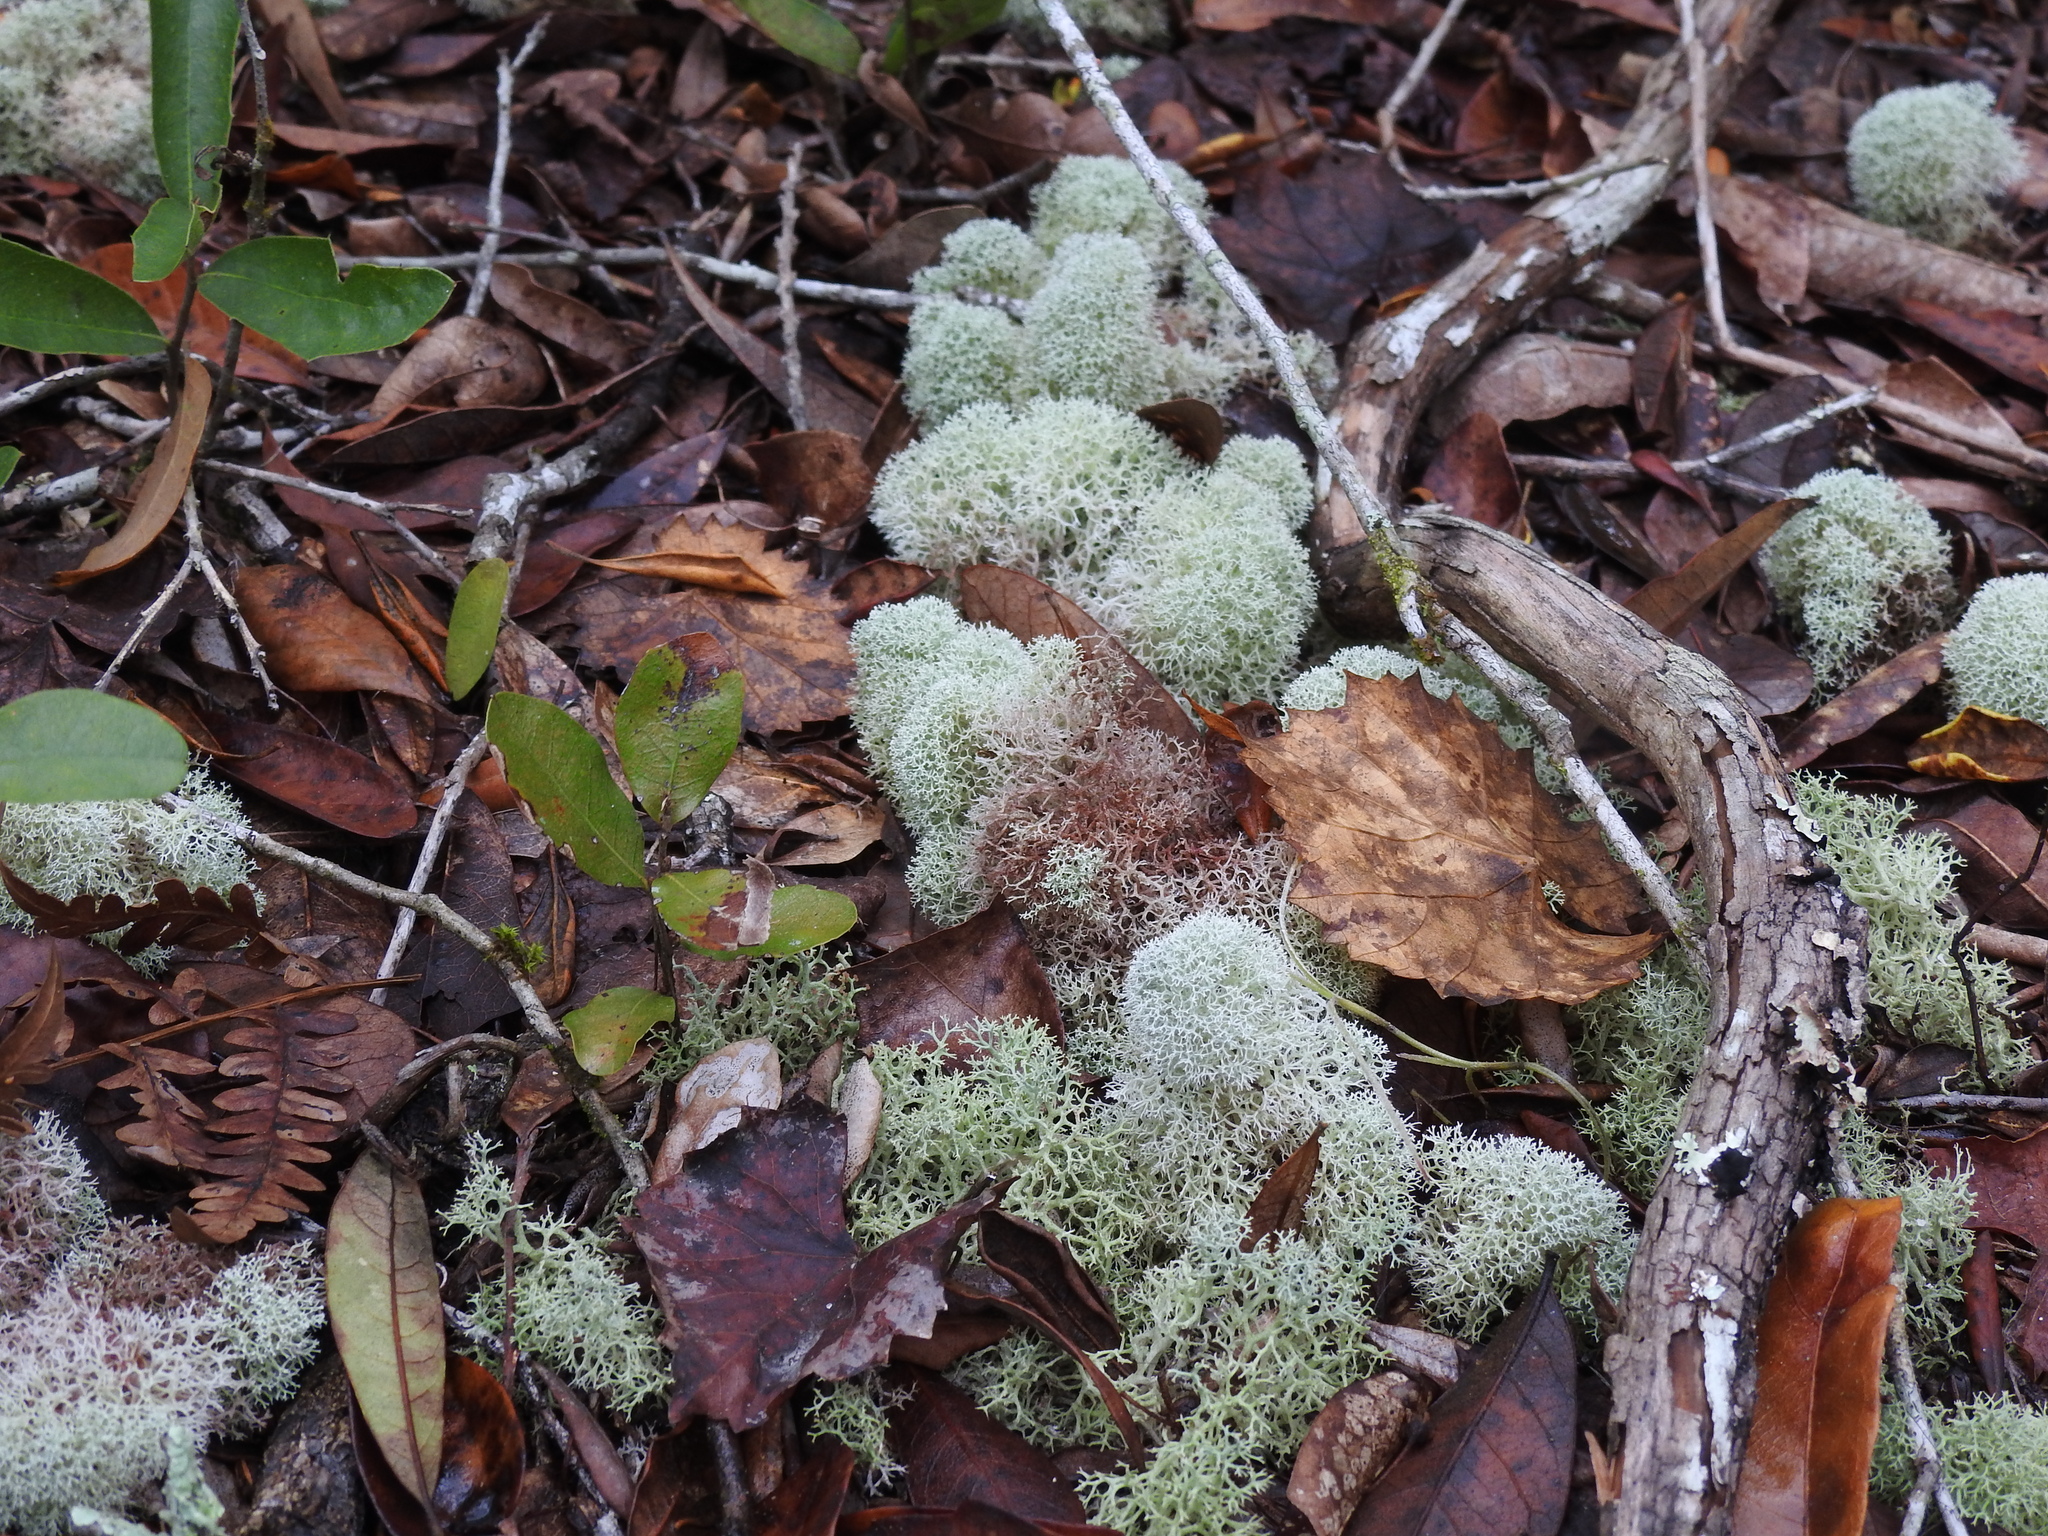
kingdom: Fungi
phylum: Ascomycota
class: Lecanoromycetes
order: Lecanorales
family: Cladoniaceae
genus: Cladonia
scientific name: Cladonia evansii
